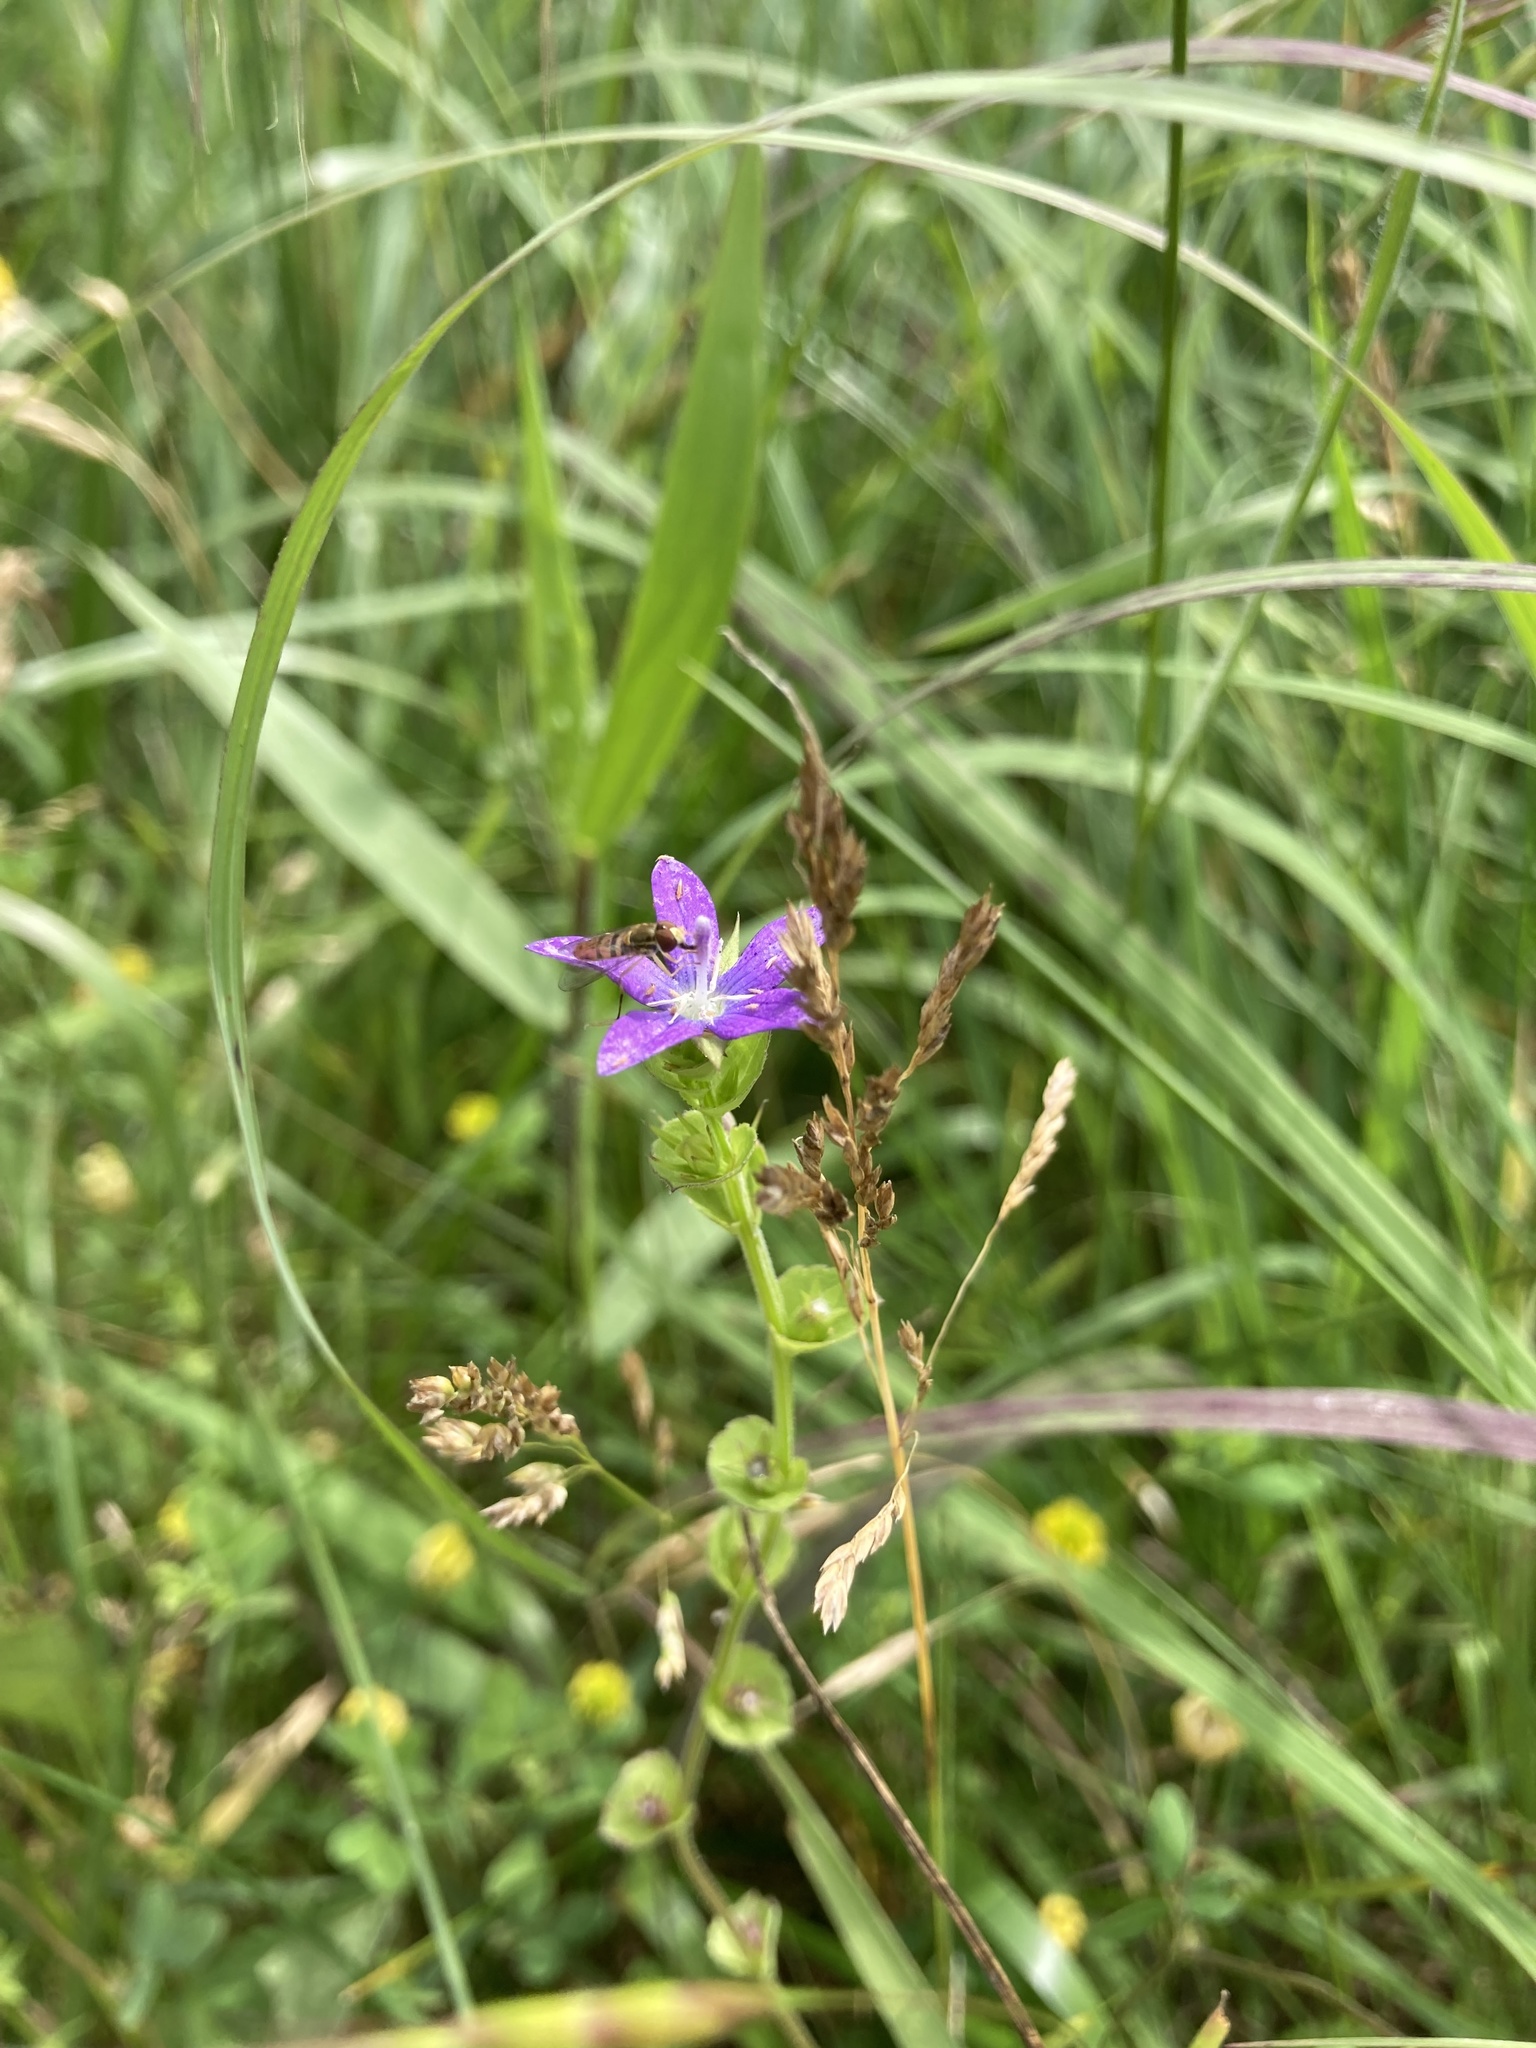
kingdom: Plantae
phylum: Tracheophyta
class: Magnoliopsida
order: Asterales
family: Campanulaceae
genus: Triodanis
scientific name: Triodanis perfoliata
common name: Clasping venus' looking-glass
